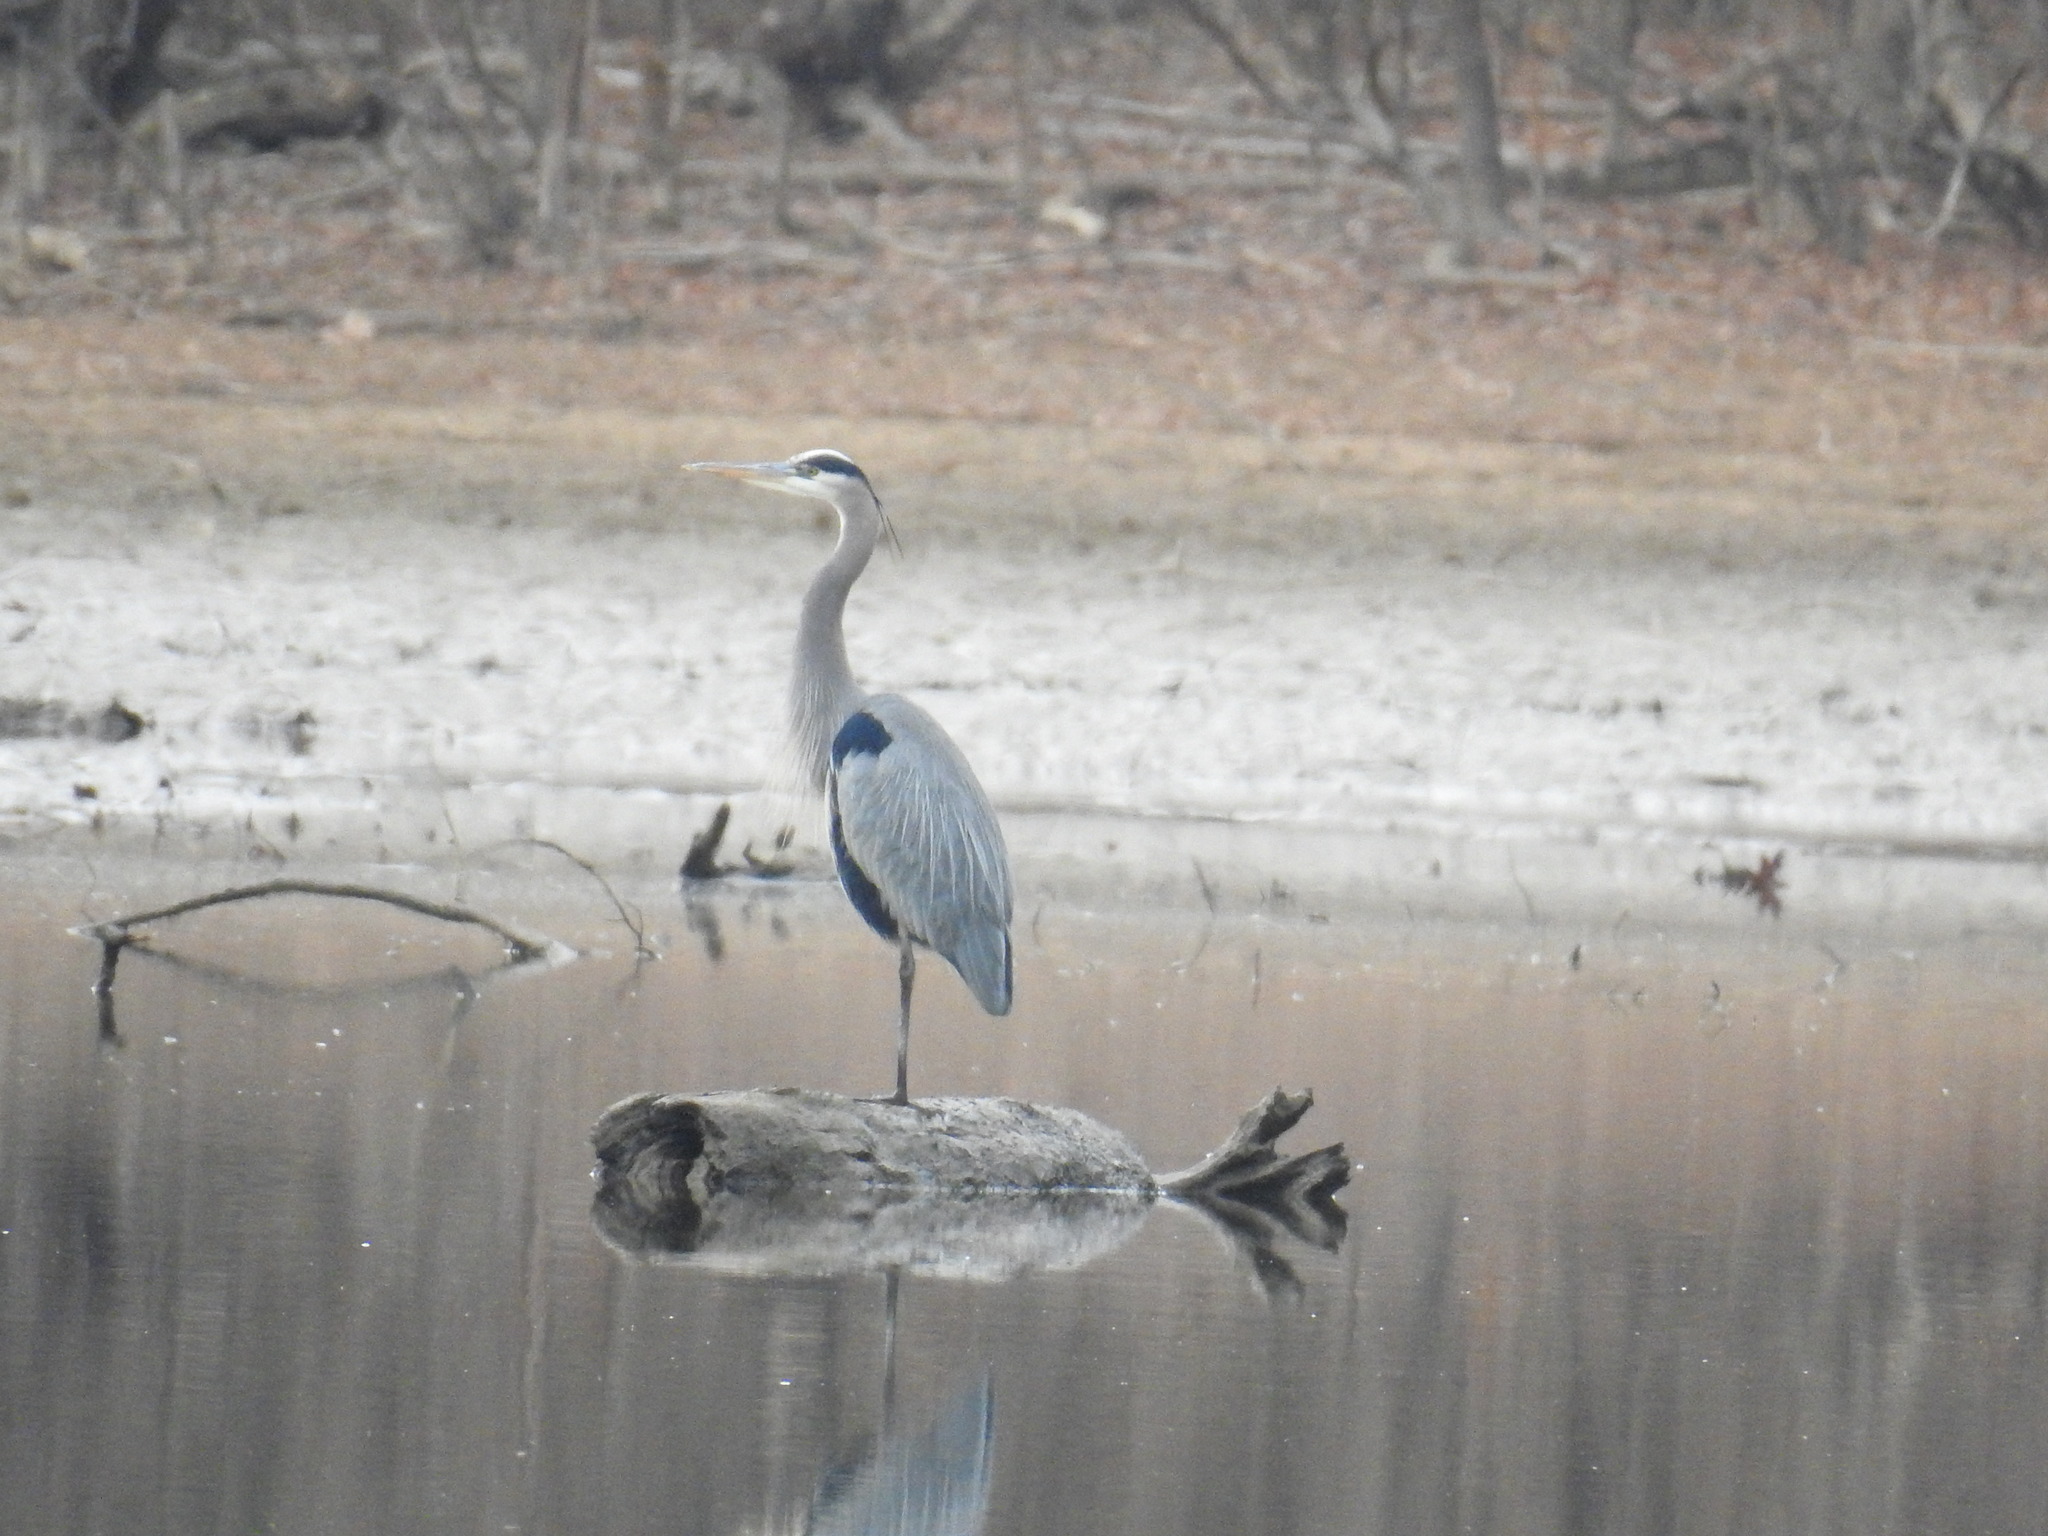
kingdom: Animalia
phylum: Chordata
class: Aves
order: Pelecaniformes
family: Ardeidae
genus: Ardea
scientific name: Ardea herodias
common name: Great blue heron
